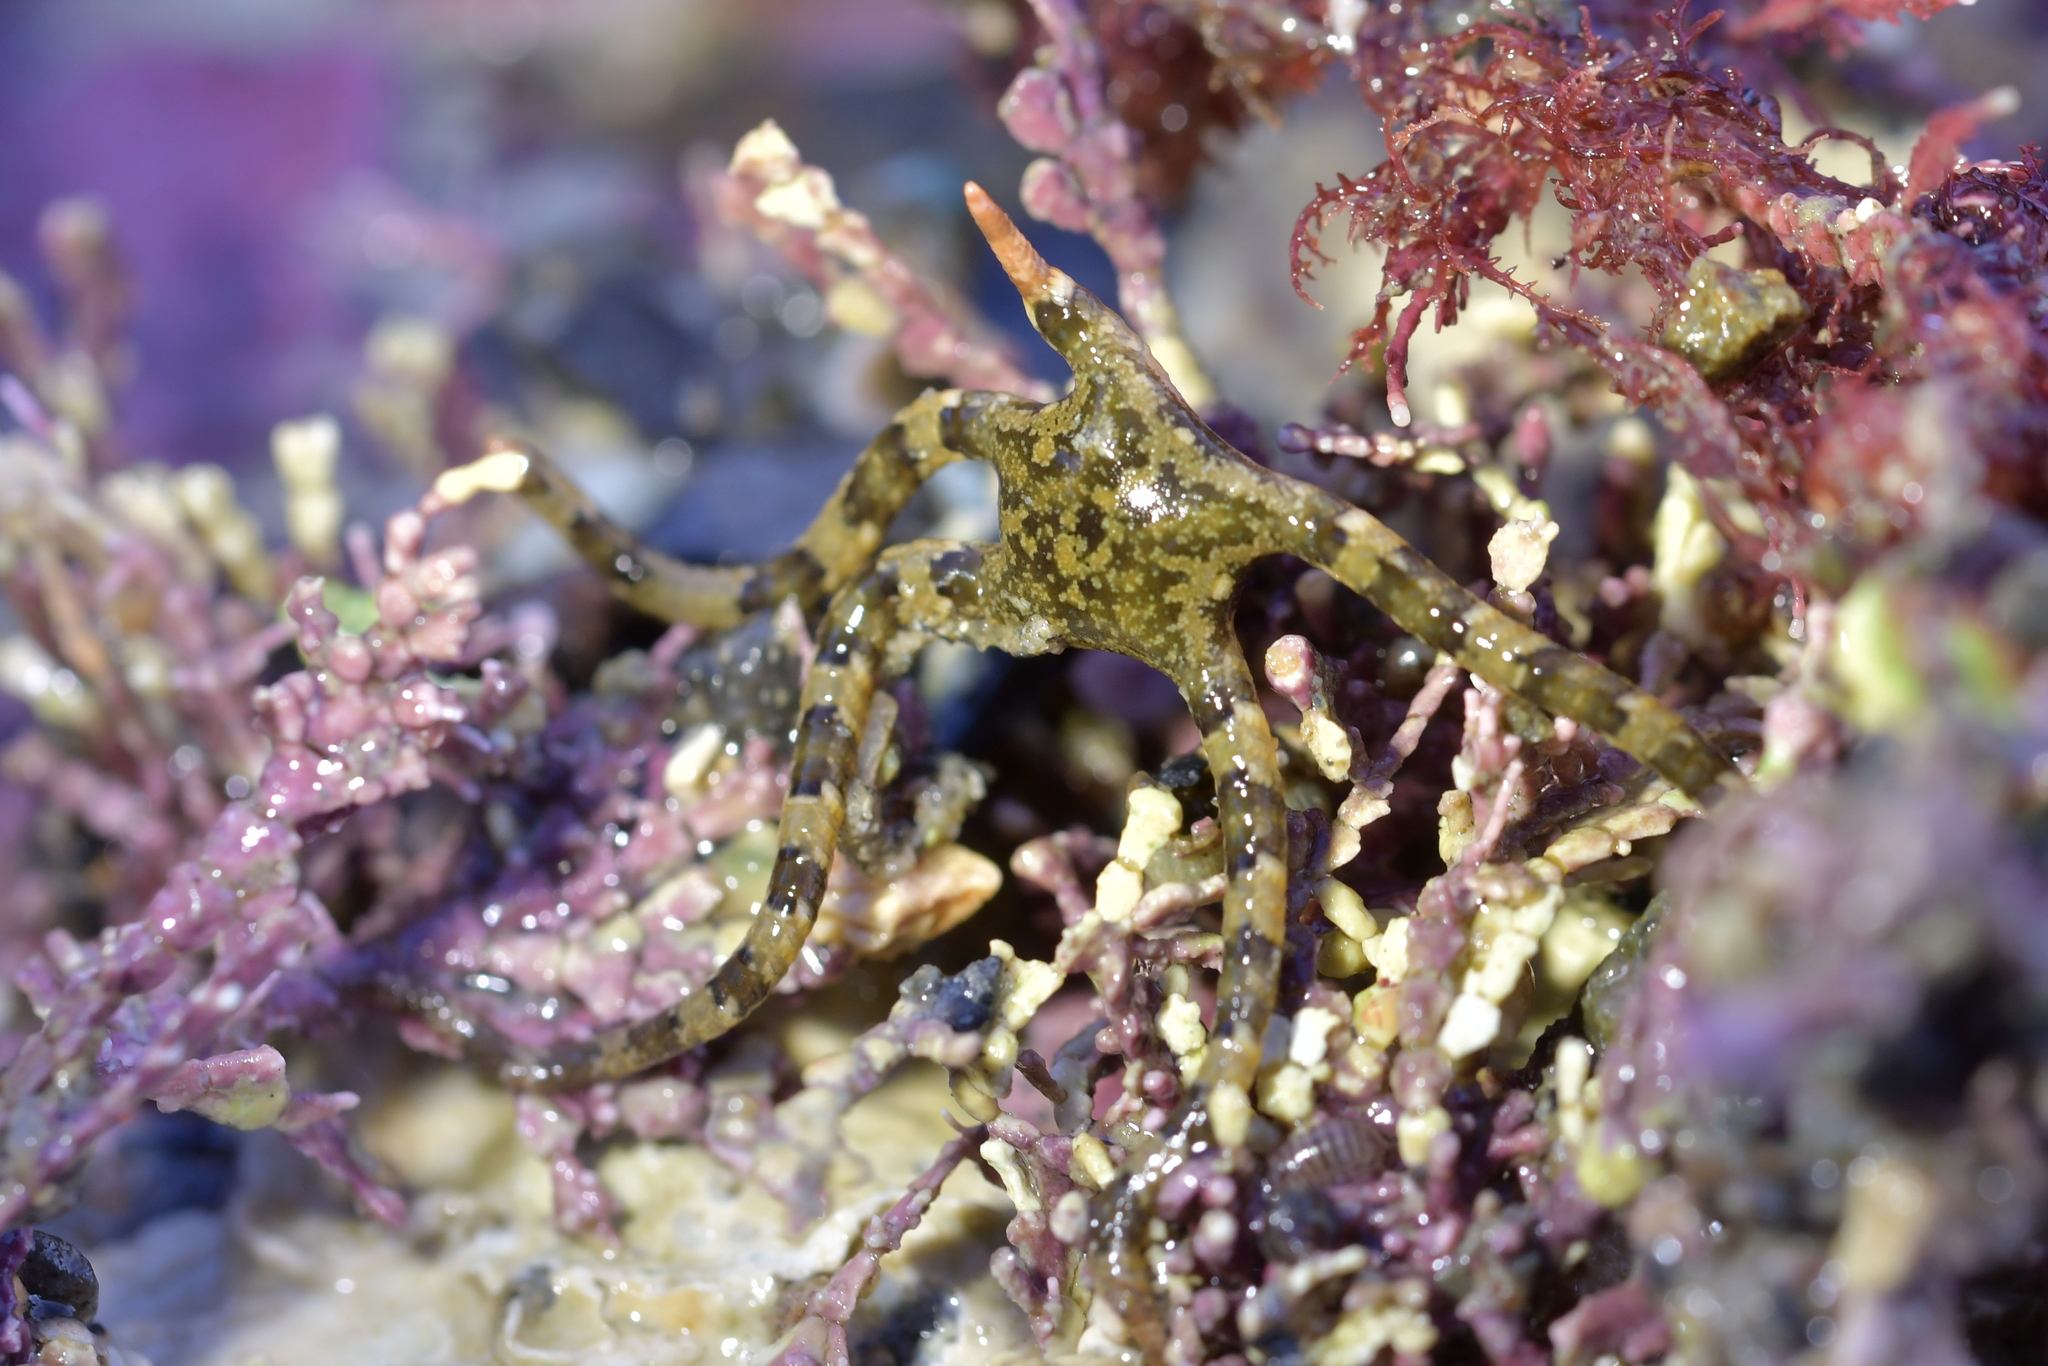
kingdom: Animalia
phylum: Echinodermata
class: Ophiuroidea
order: Ophiacanthida
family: Ophiopezidae
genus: Ophiopeza
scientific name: Ophiopeza cylindrica
